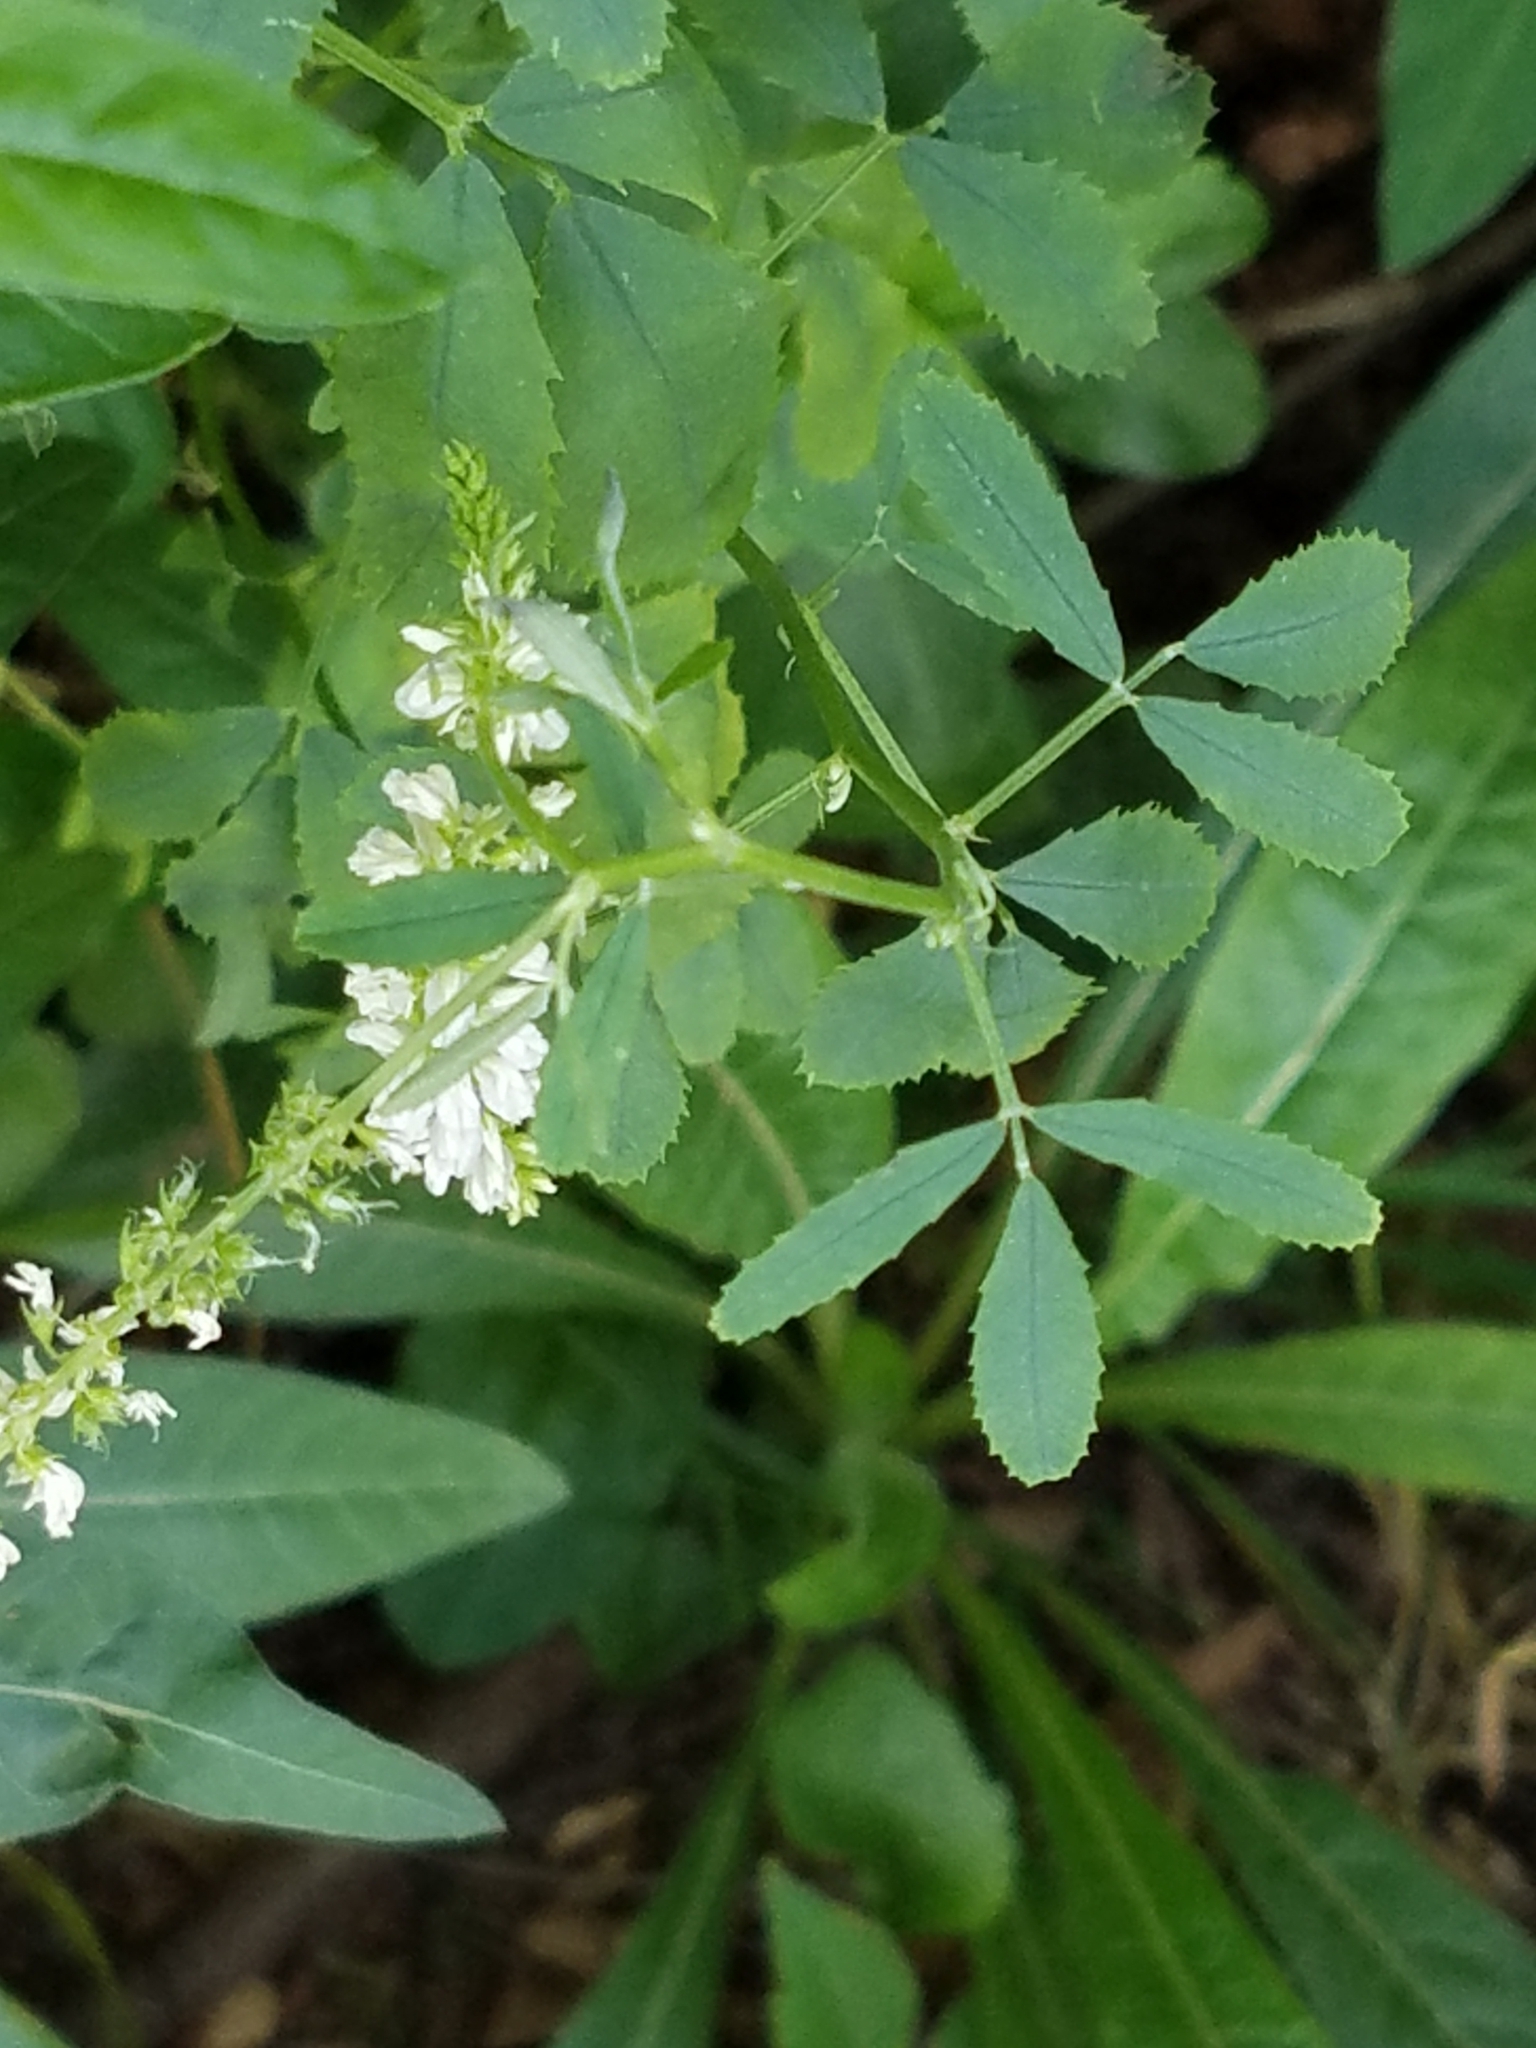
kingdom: Plantae
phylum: Tracheophyta
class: Magnoliopsida
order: Fabales
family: Fabaceae
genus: Melilotus
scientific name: Melilotus albus
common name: White melilot
